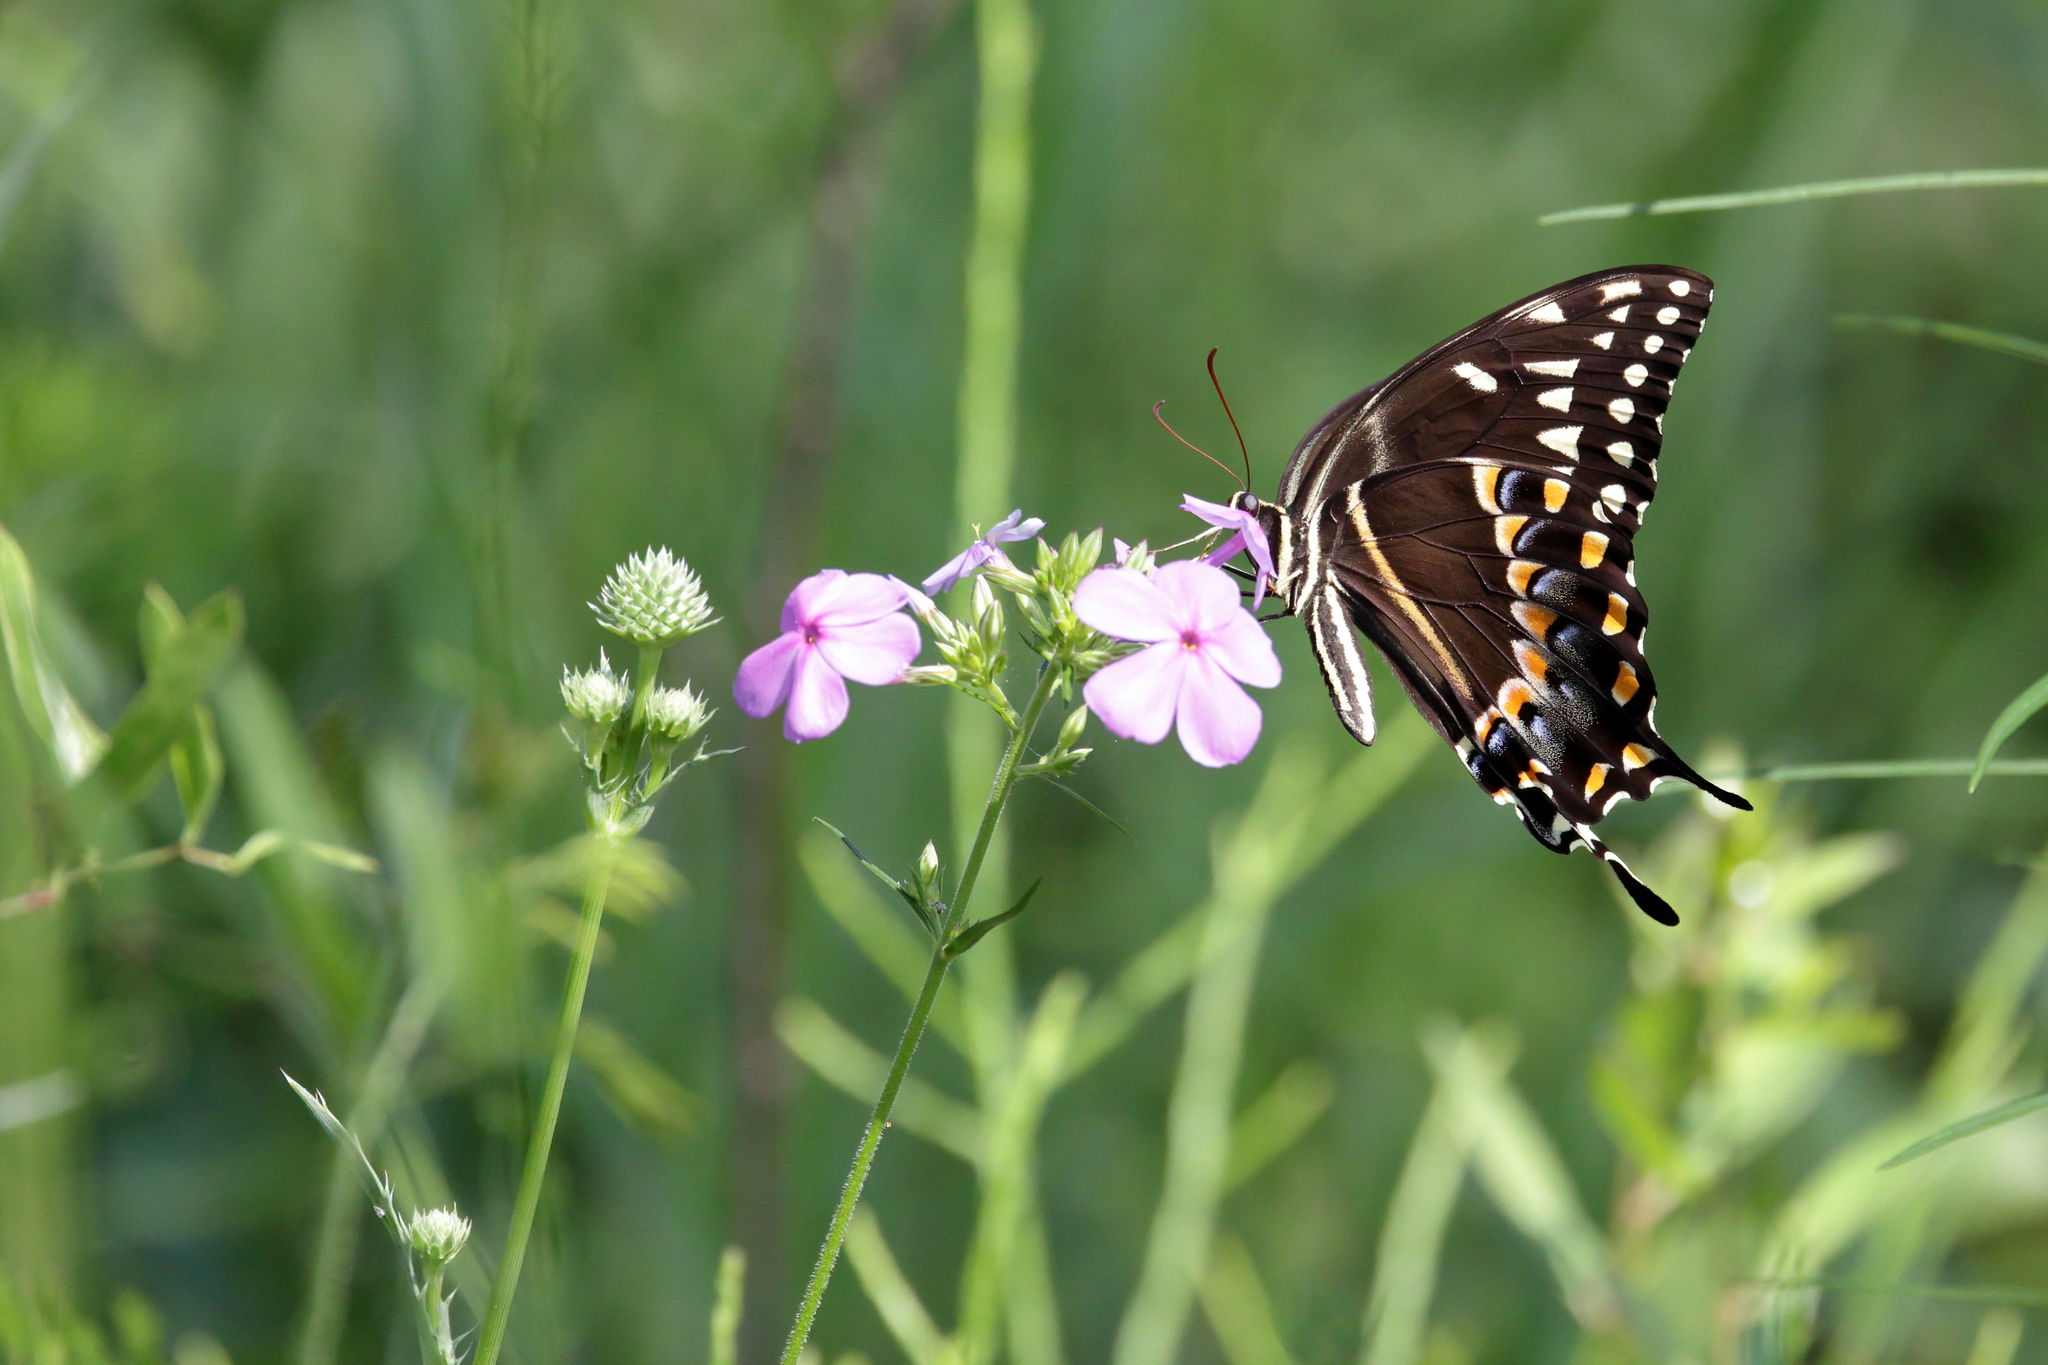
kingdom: Animalia
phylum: Arthropoda
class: Insecta
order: Lepidoptera
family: Papilionidae
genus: Papilio
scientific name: Papilio palamedes
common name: Palamedes swallowtail
